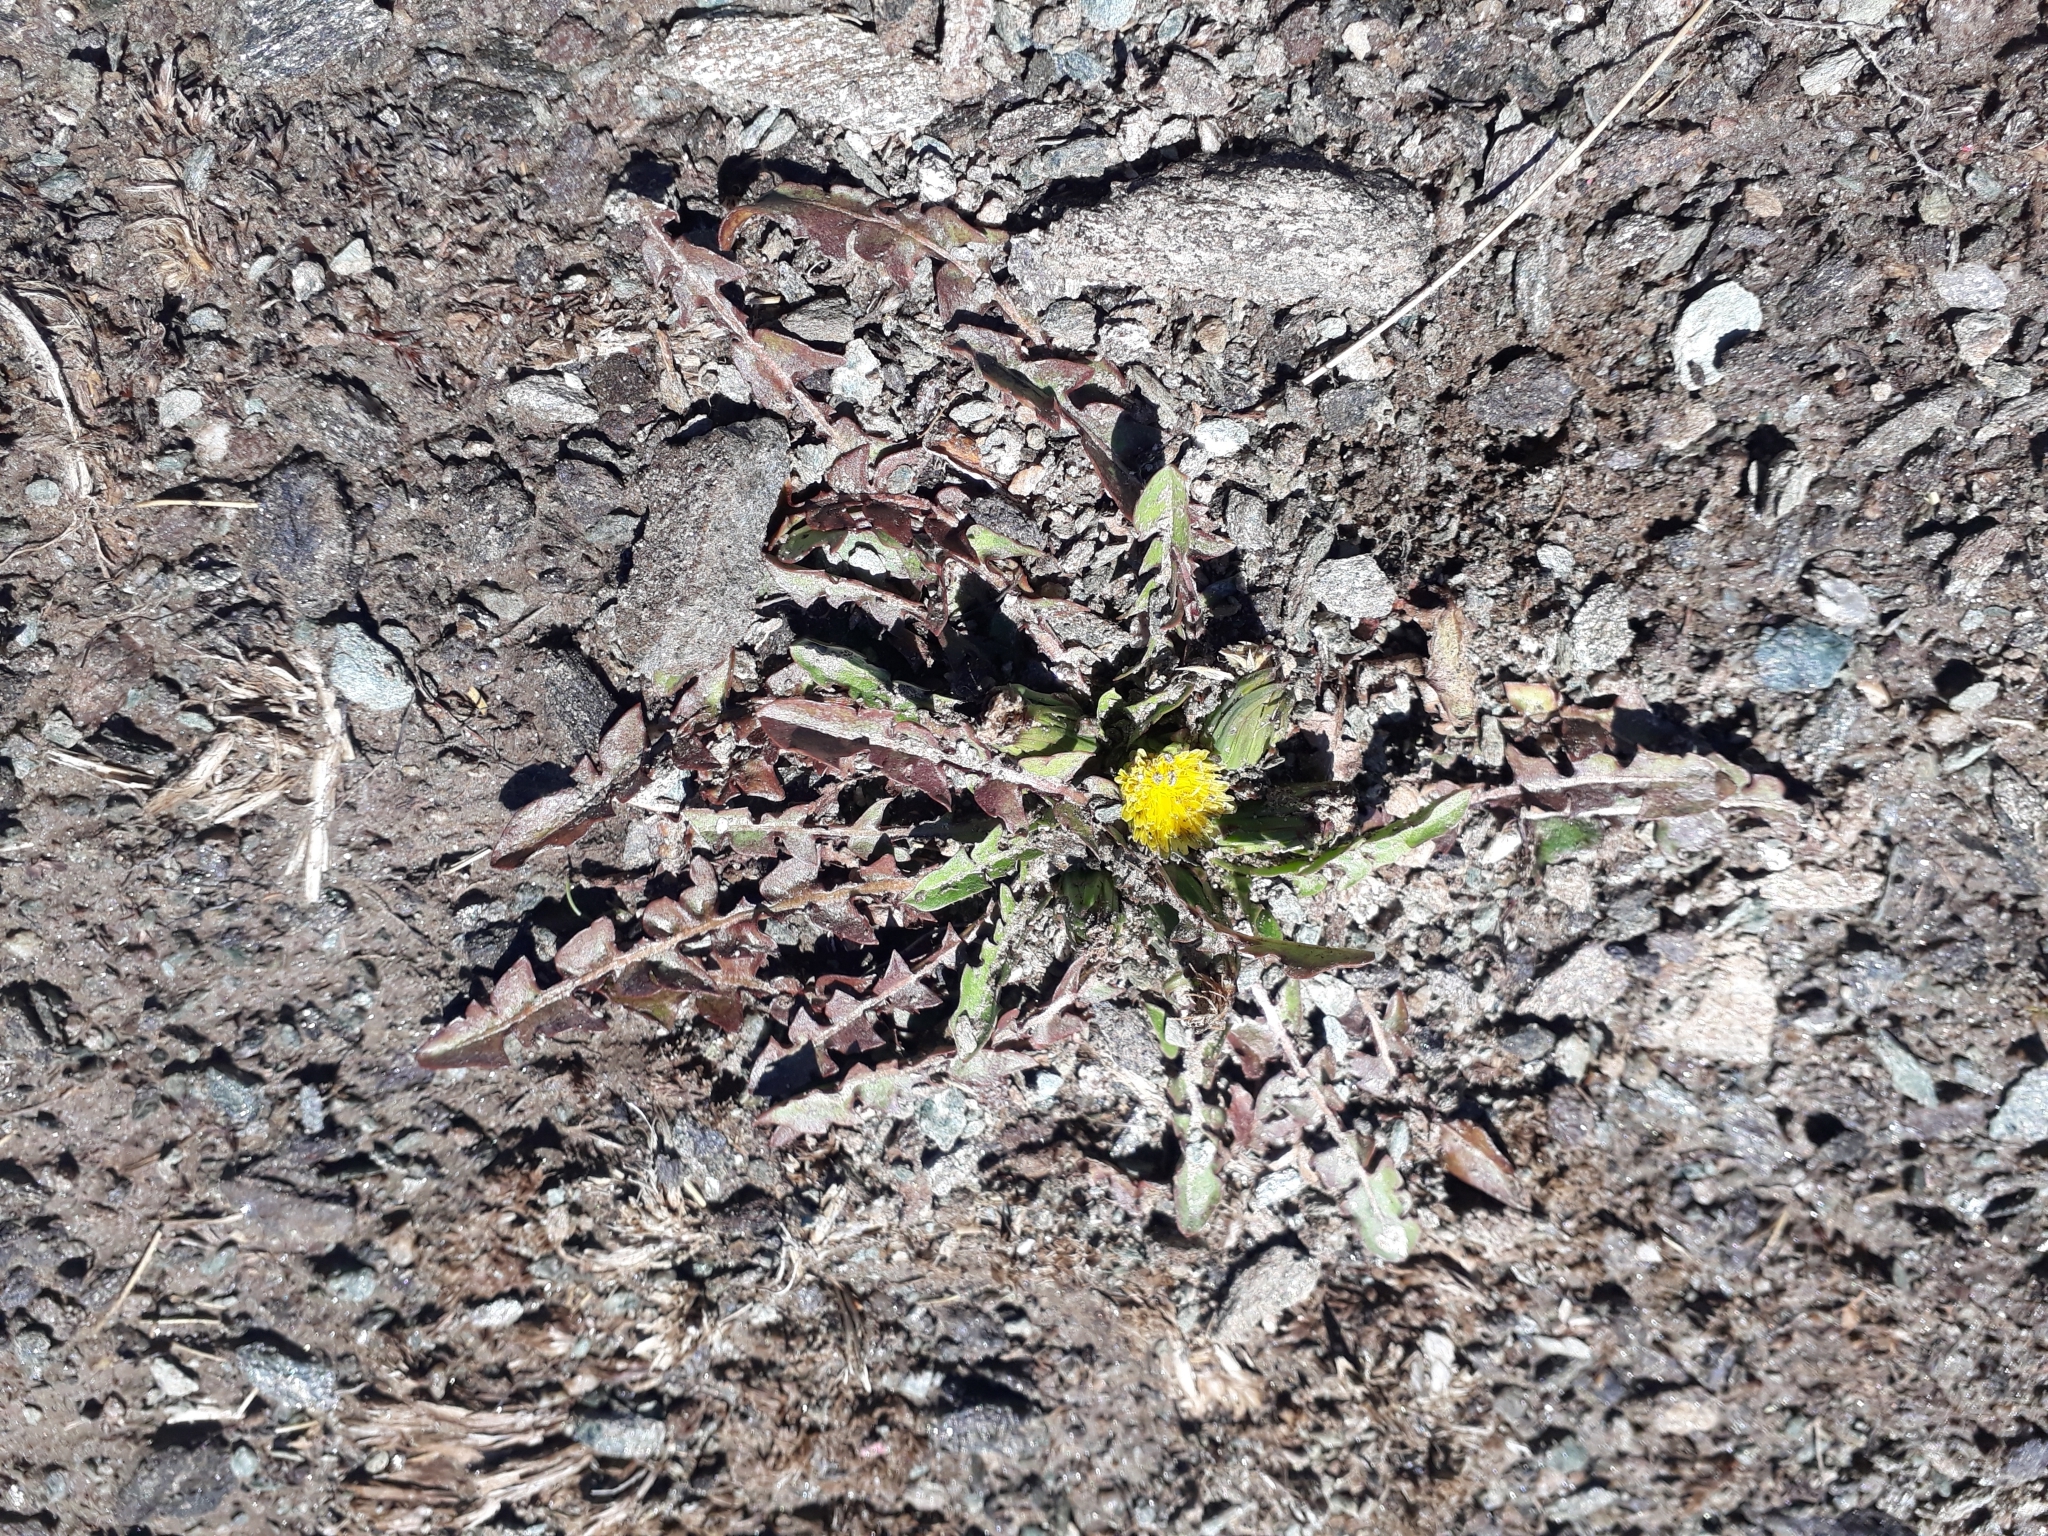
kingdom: Plantae
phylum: Tracheophyta
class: Magnoliopsida
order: Asterales
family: Asteraceae
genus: Taraxacum
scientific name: Taraxacum zealandicum
